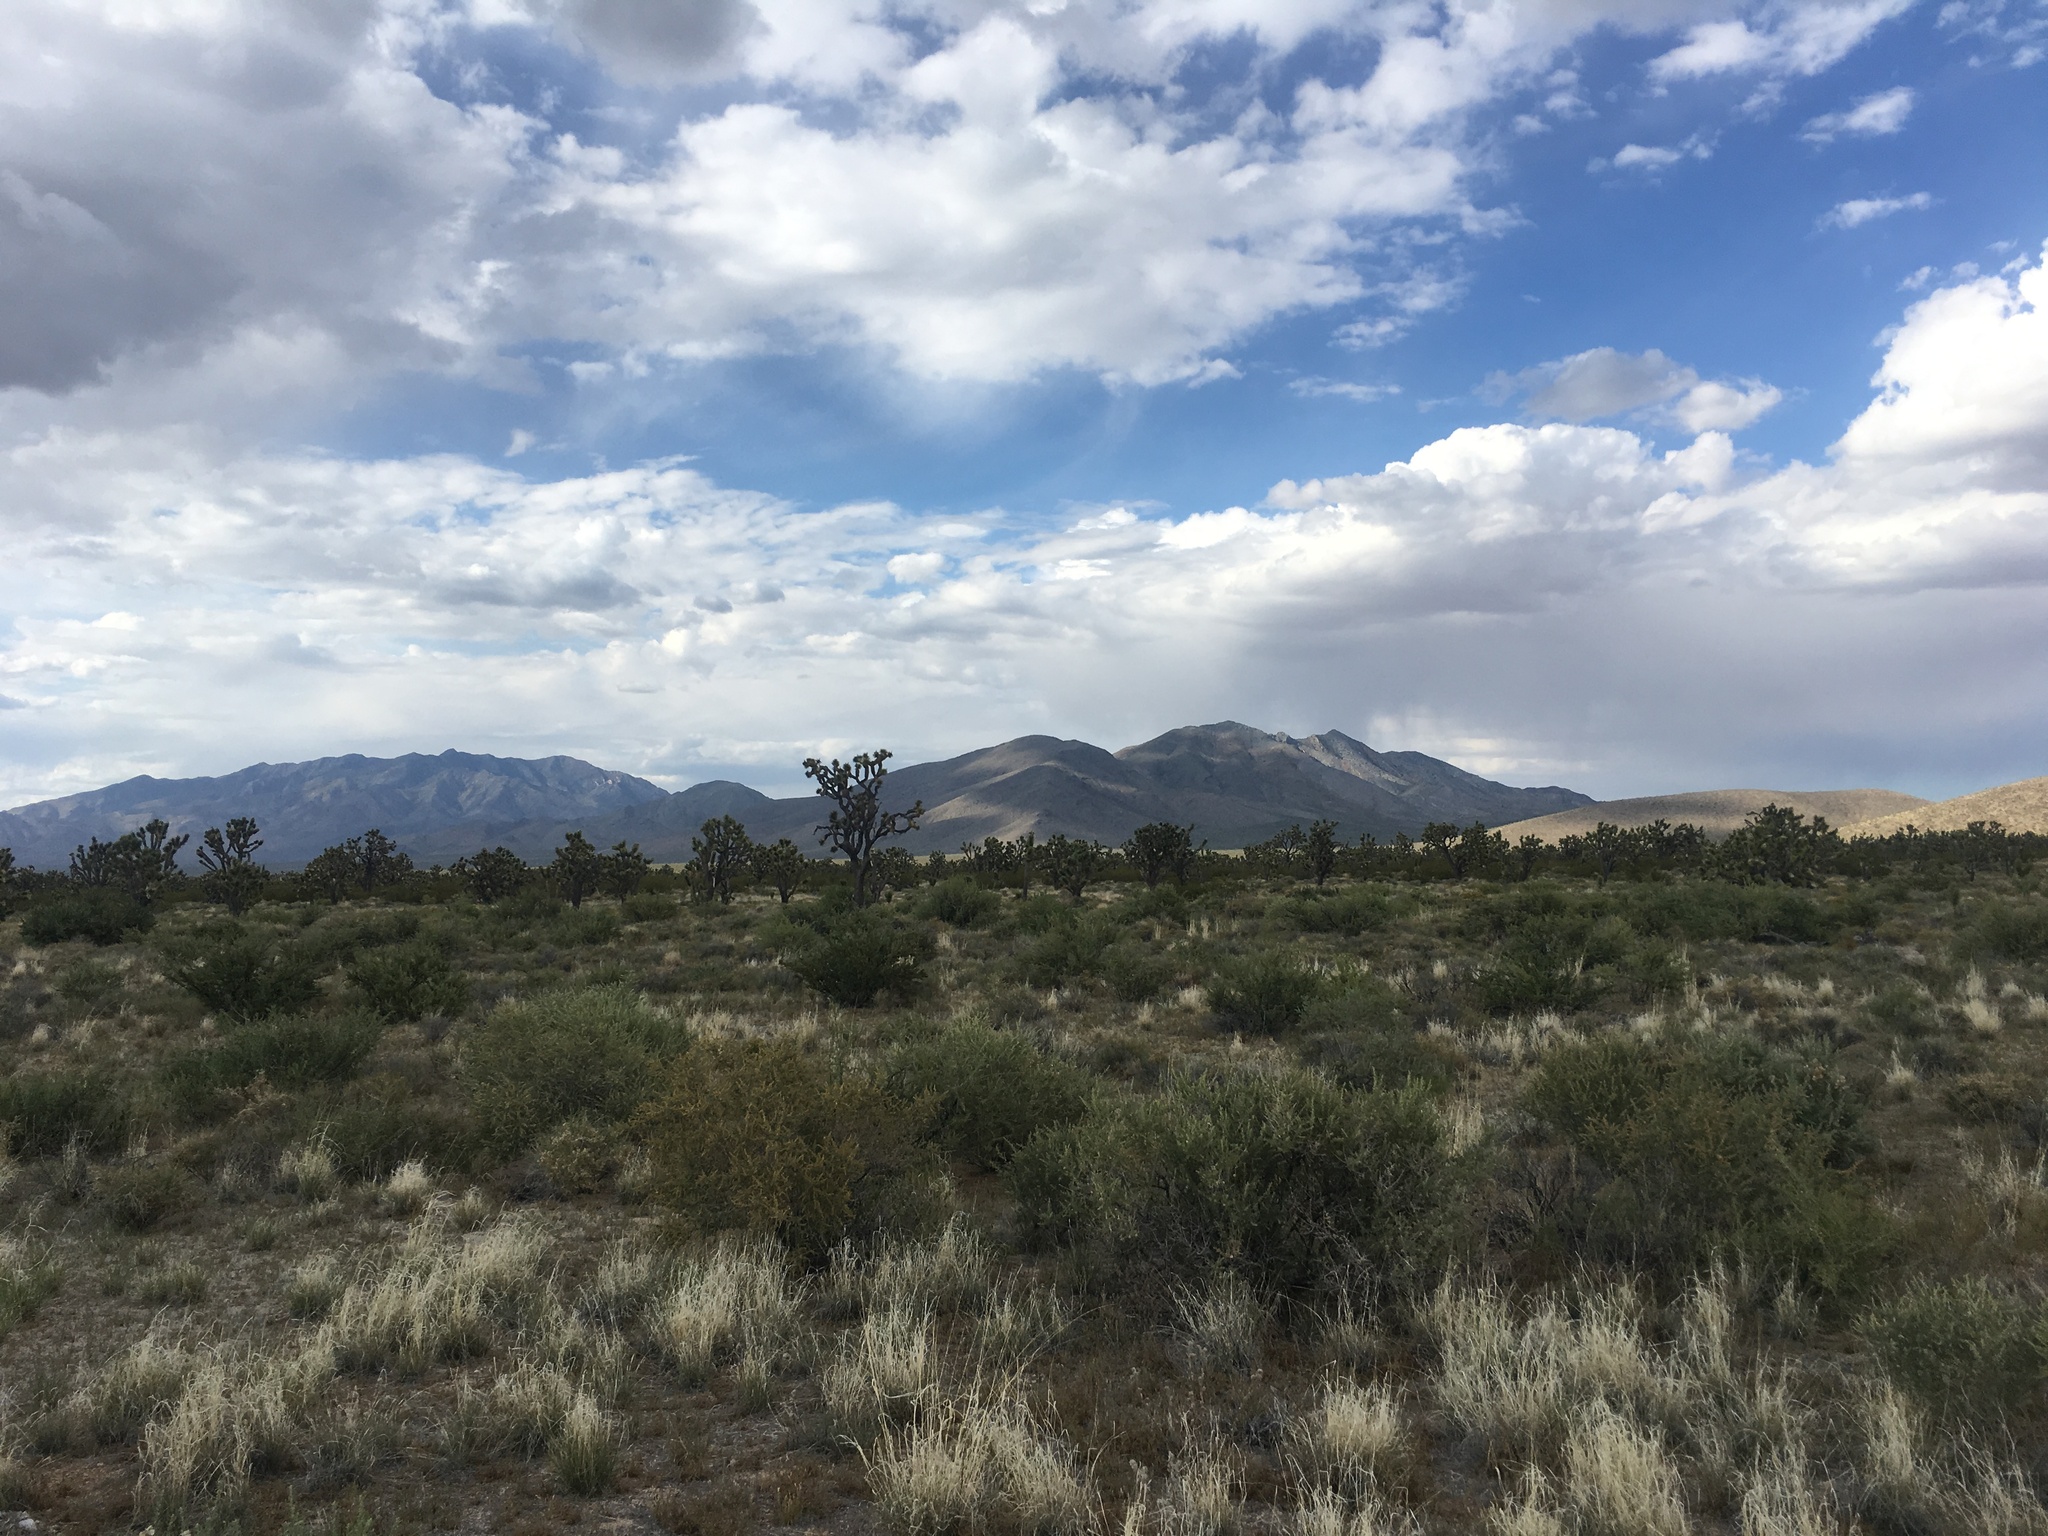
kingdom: Plantae
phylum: Tracheophyta
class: Liliopsida
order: Asparagales
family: Asparagaceae
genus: Yucca
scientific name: Yucca brevifolia
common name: Joshua tree
